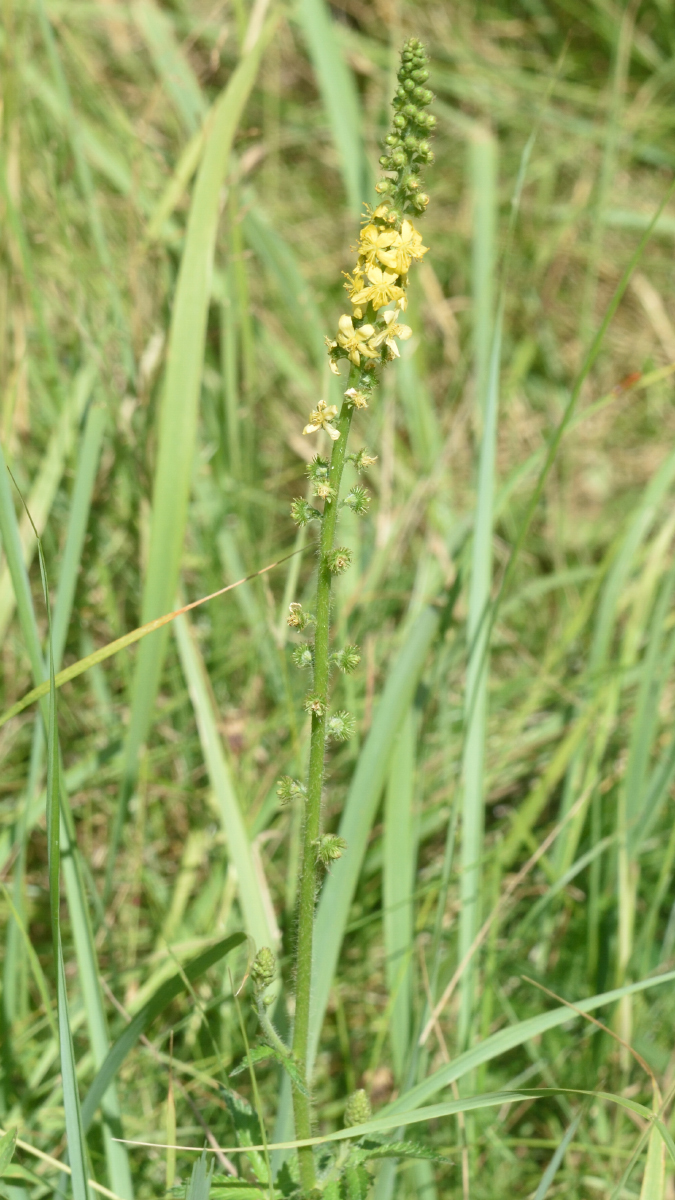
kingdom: Plantae
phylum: Tracheophyta
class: Magnoliopsida
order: Rosales
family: Rosaceae
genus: Agrimonia
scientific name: Agrimonia eupatoria
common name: Agrimony
